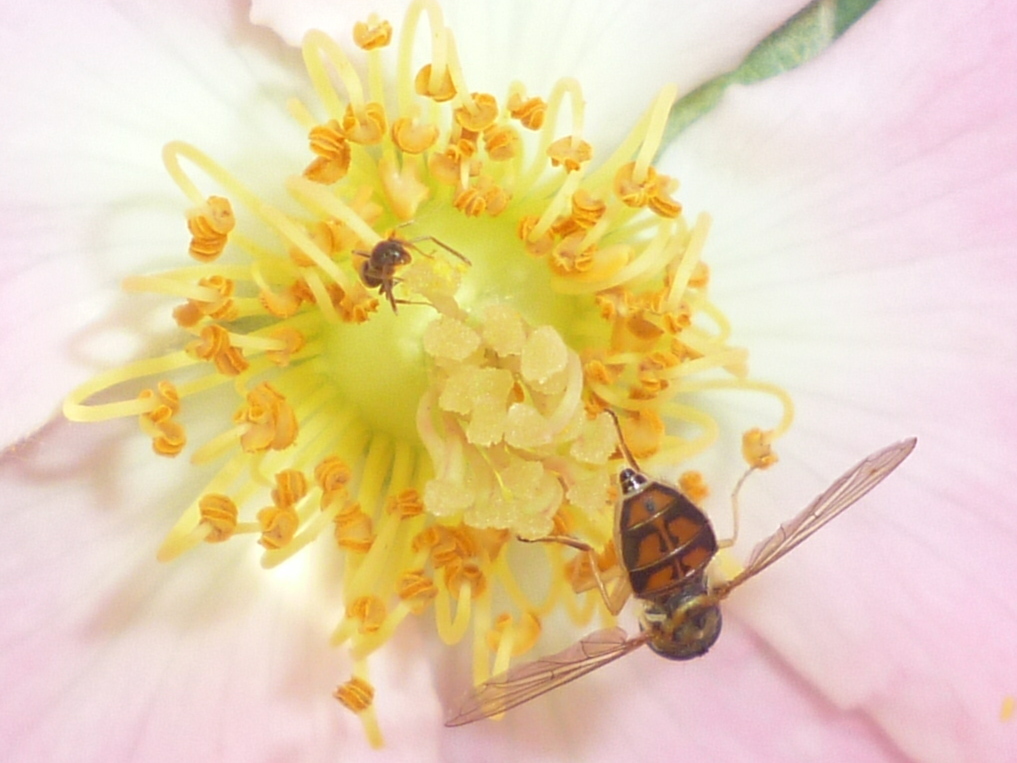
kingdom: Animalia
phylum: Arthropoda
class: Insecta
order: Diptera
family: Syrphidae
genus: Toxomerus
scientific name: Toxomerus marginatus
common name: Syrphid fly
